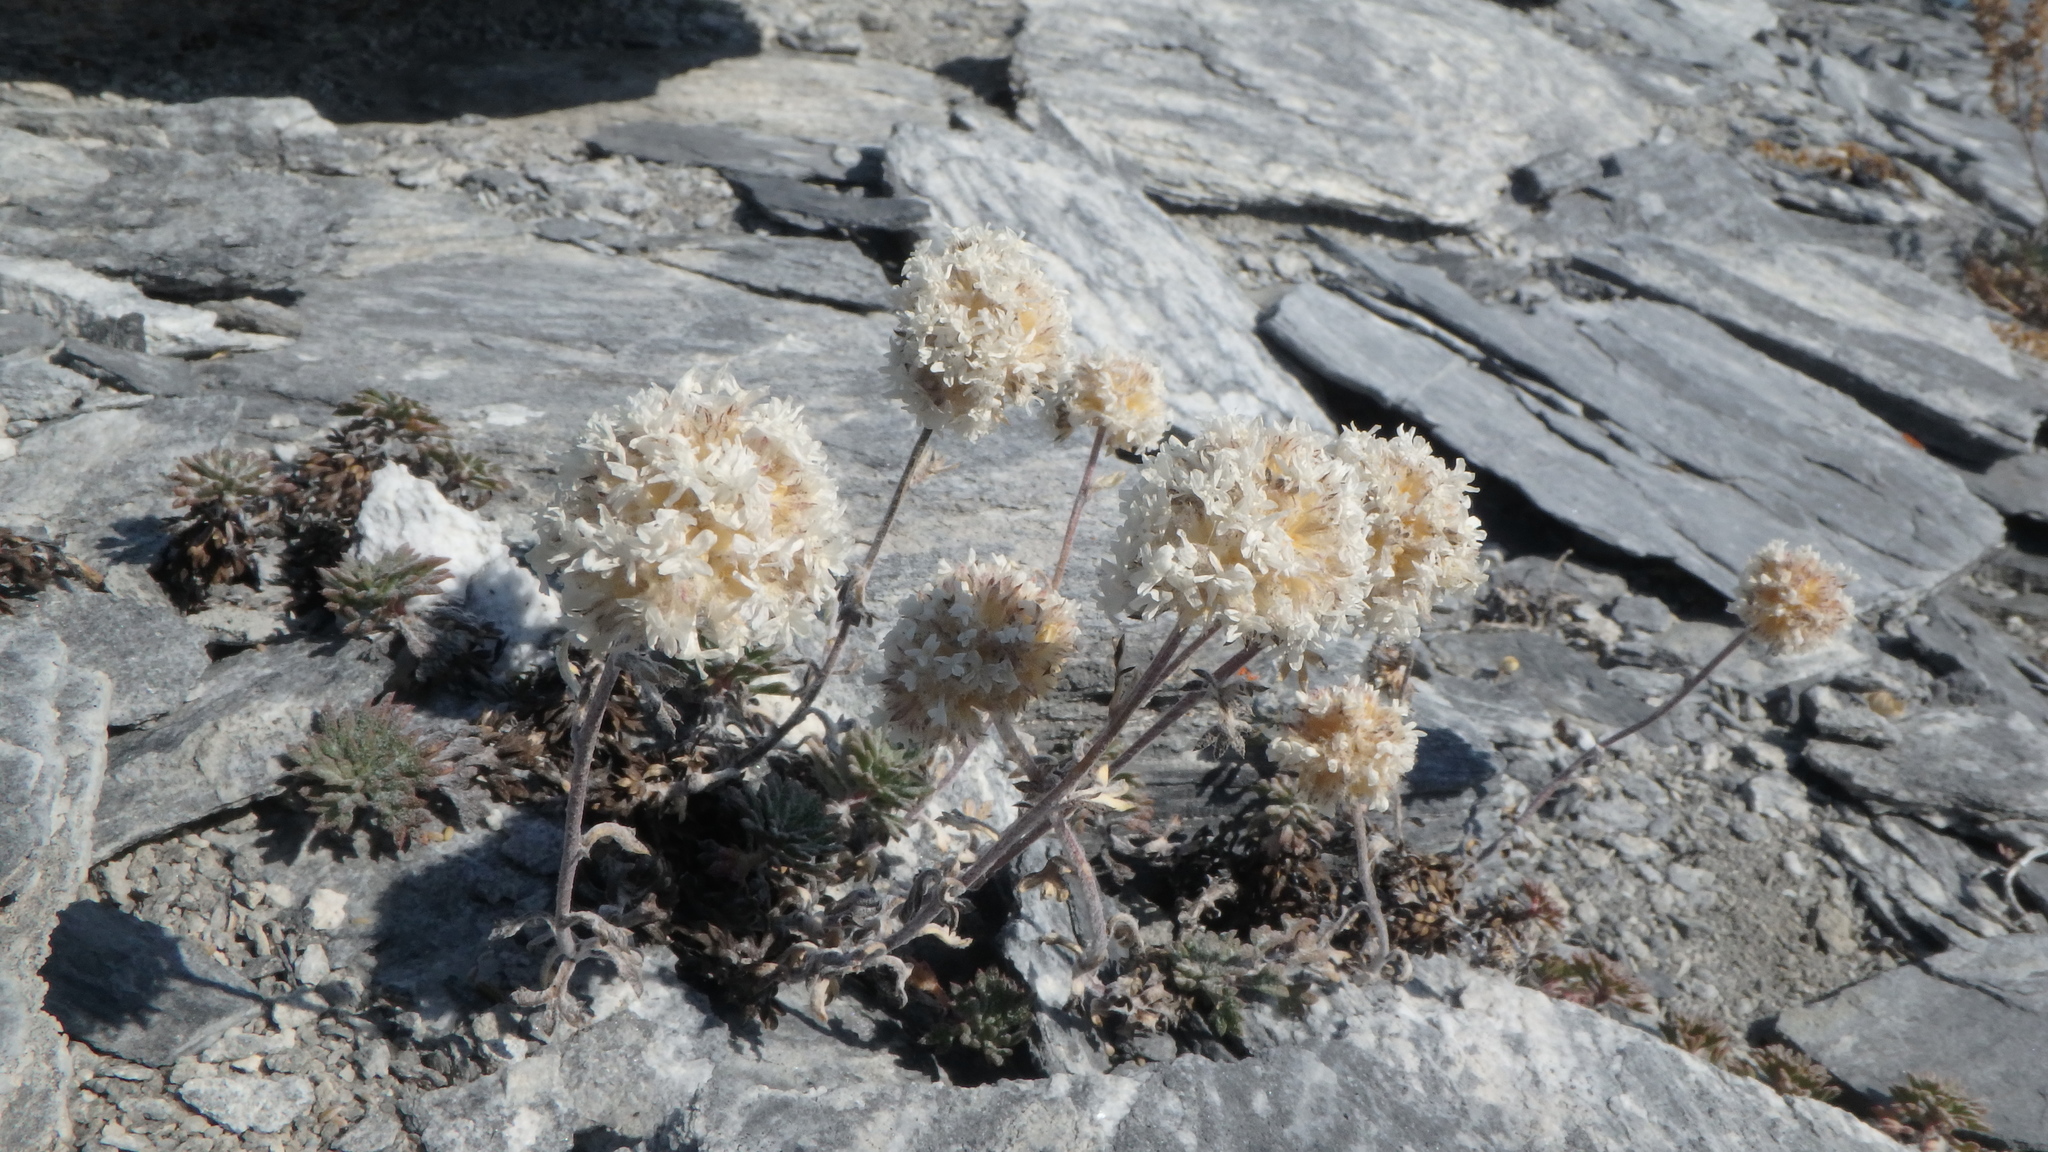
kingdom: Plantae
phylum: Tracheophyta
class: Magnoliopsida
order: Ericales
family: Polemoniaceae
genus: Ipomopsis
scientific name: Ipomopsis congesta
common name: Ball-head gilia
